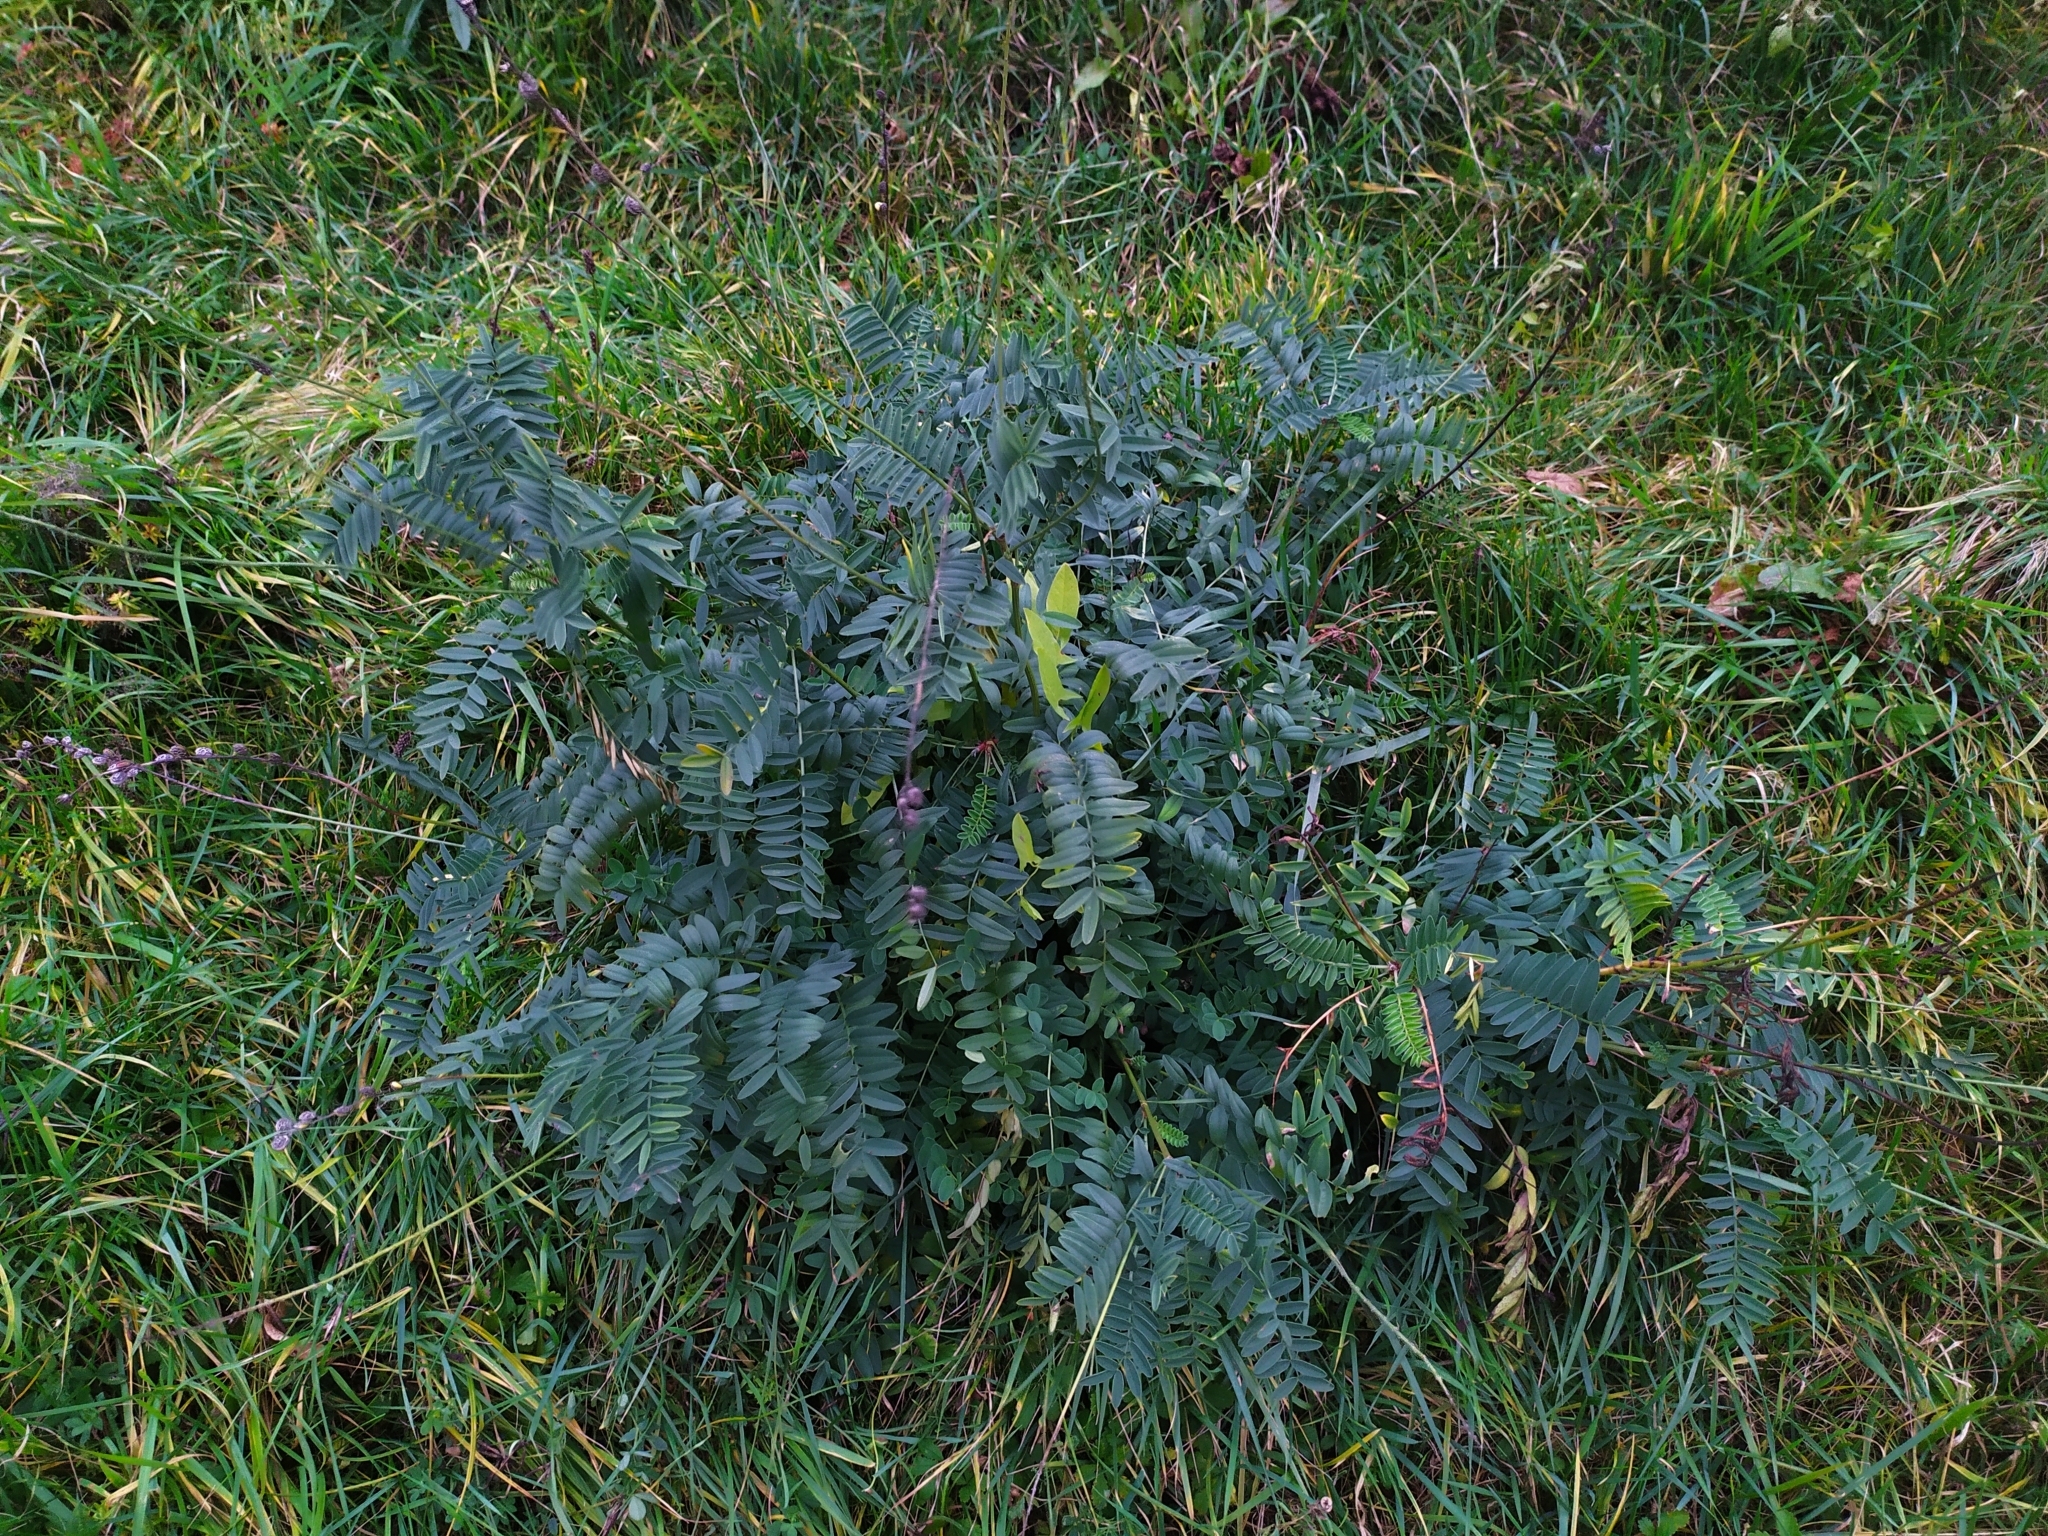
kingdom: Plantae
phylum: Tracheophyta
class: Magnoliopsida
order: Fabales
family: Fabaceae
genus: Onobrychis
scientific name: Onobrychis viciifolia
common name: Sainfoin
